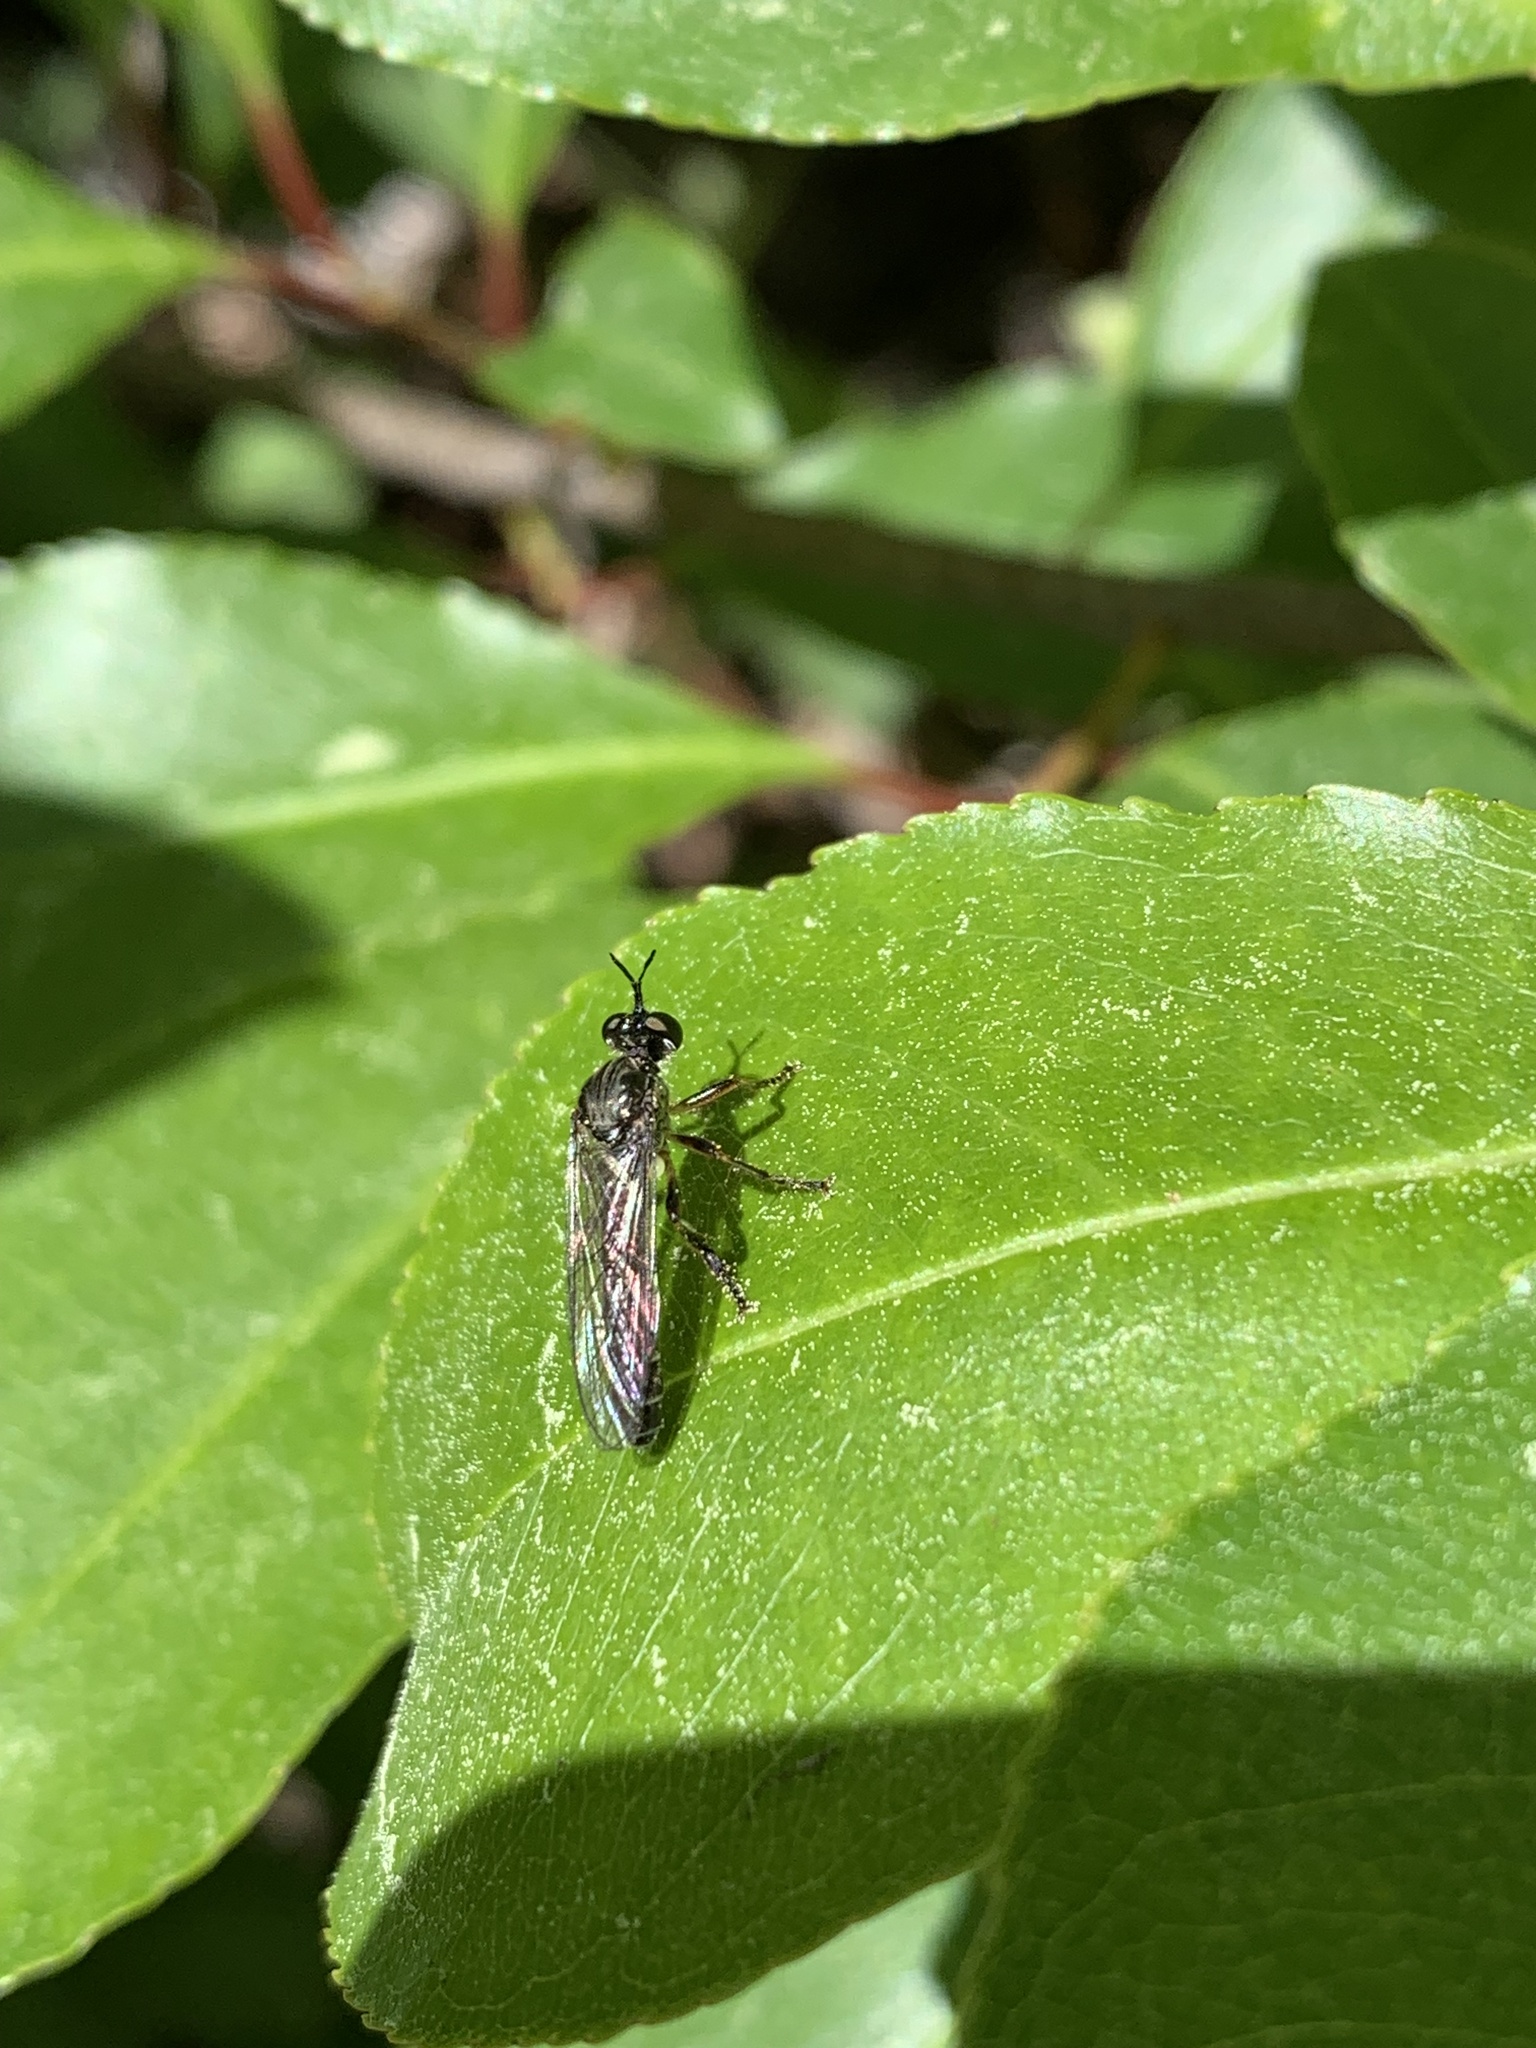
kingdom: Animalia
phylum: Arthropoda
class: Insecta
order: Diptera
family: Asilidae
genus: Dioctria
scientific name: Dioctria hyalipennis
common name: Stripe-legged robberfly
